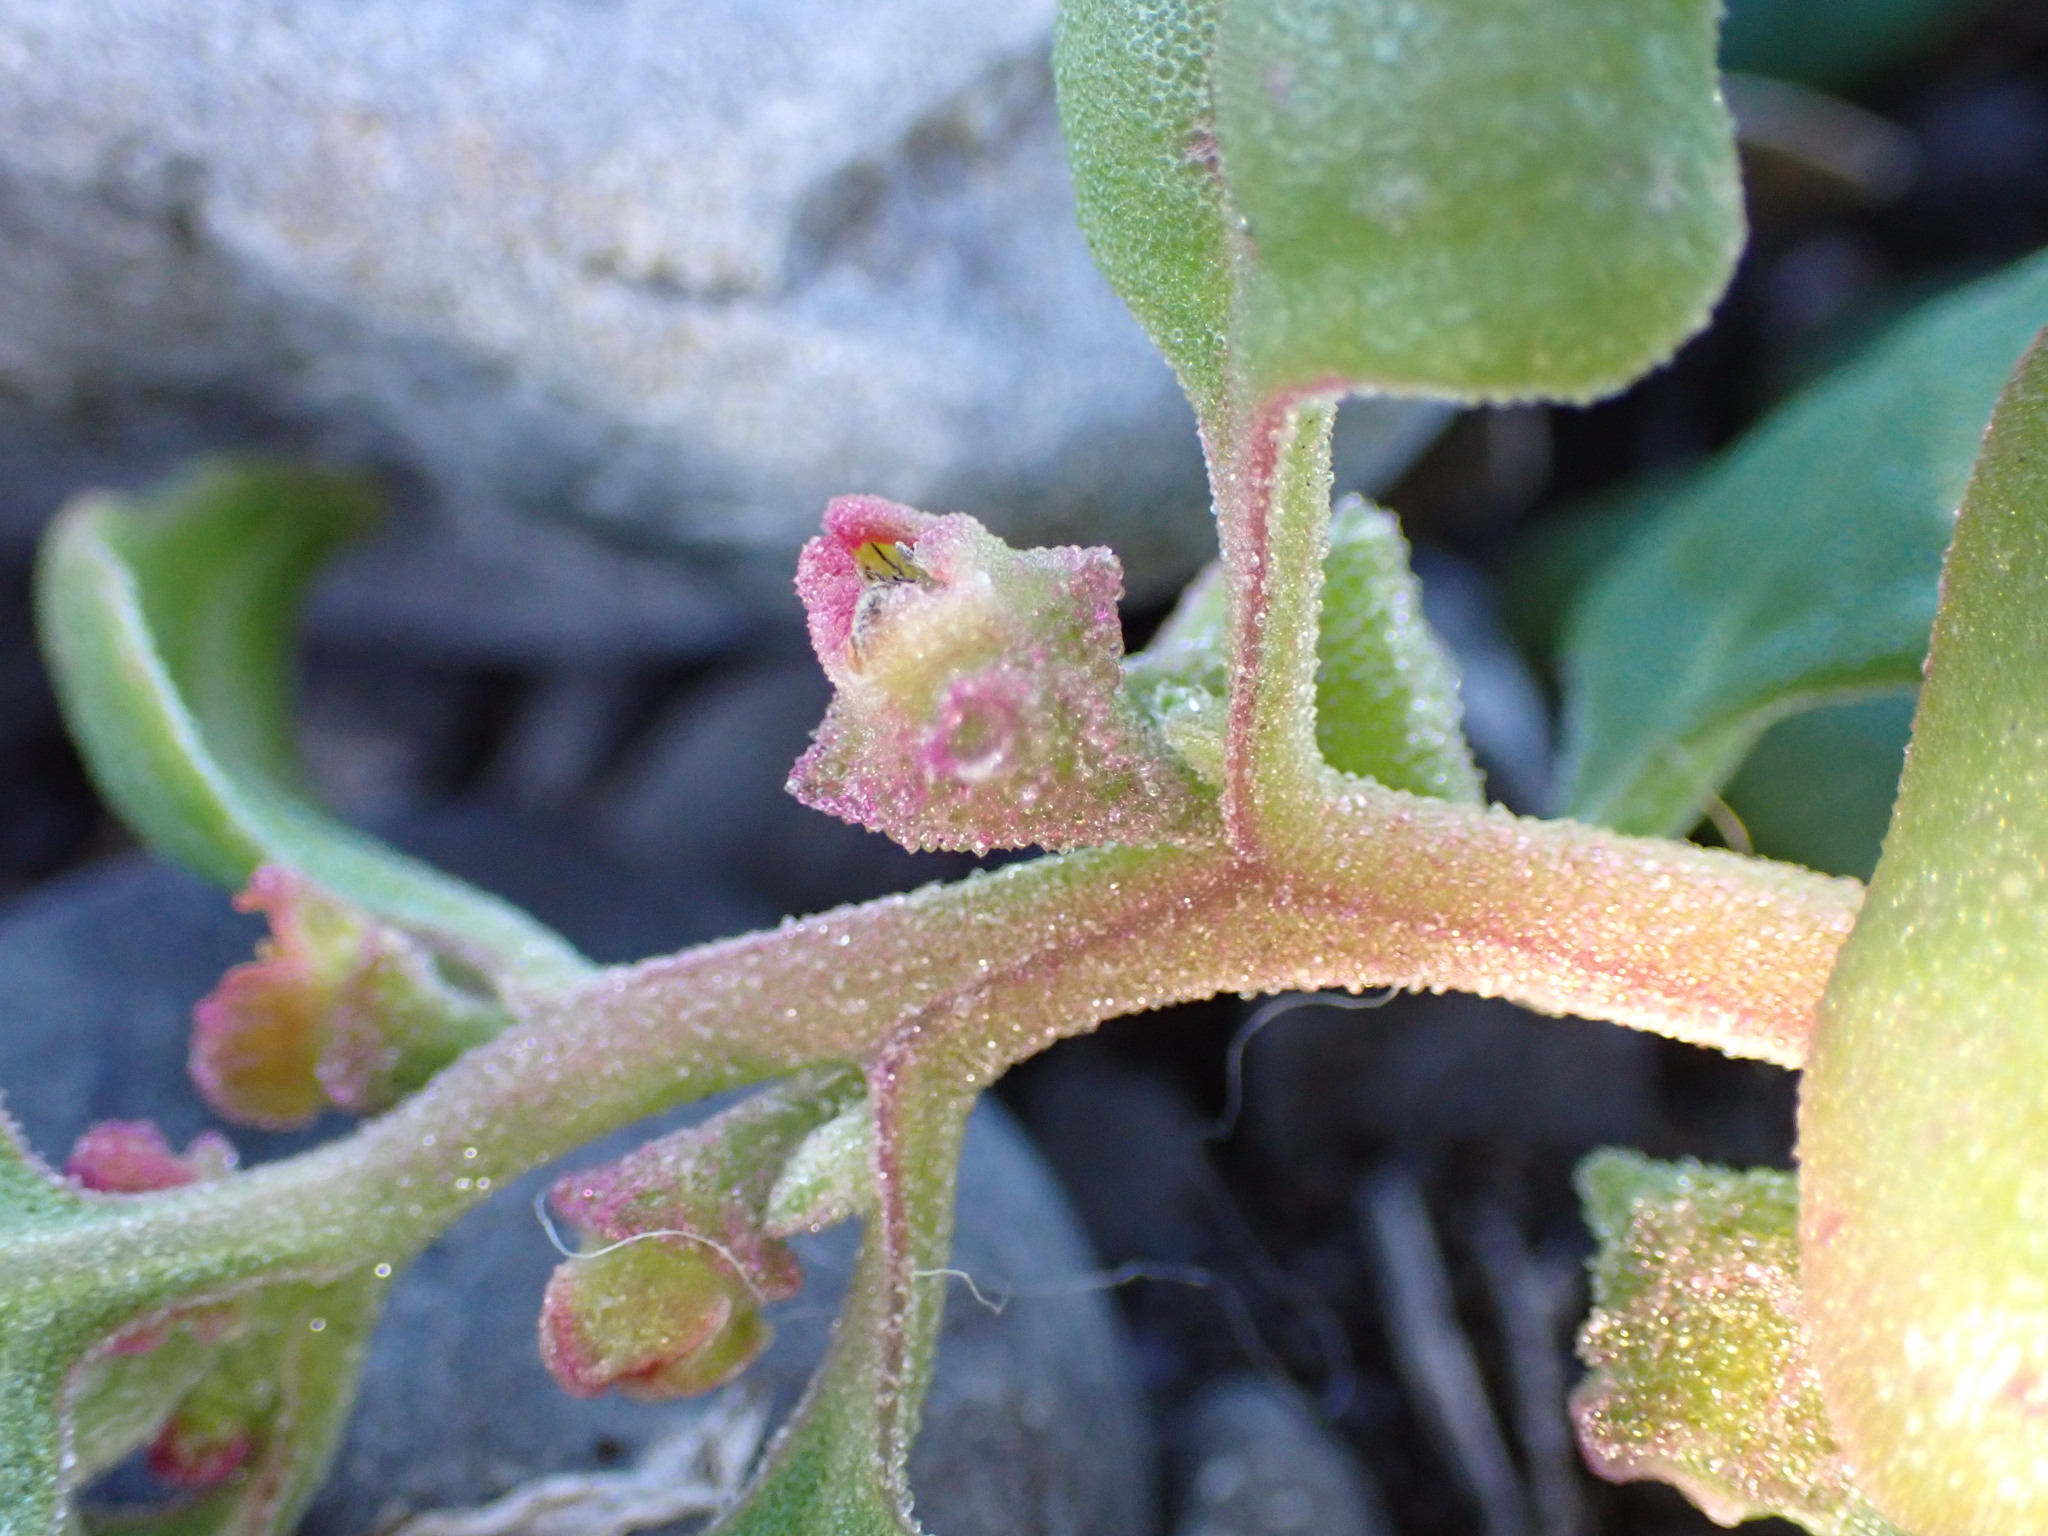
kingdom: Plantae
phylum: Tracheophyta
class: Magnoliopsida
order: Caryophyllales
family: Aizoaceae
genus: Tetragonia
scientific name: Tetragonia tetragonoides
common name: New zealand-spinach
